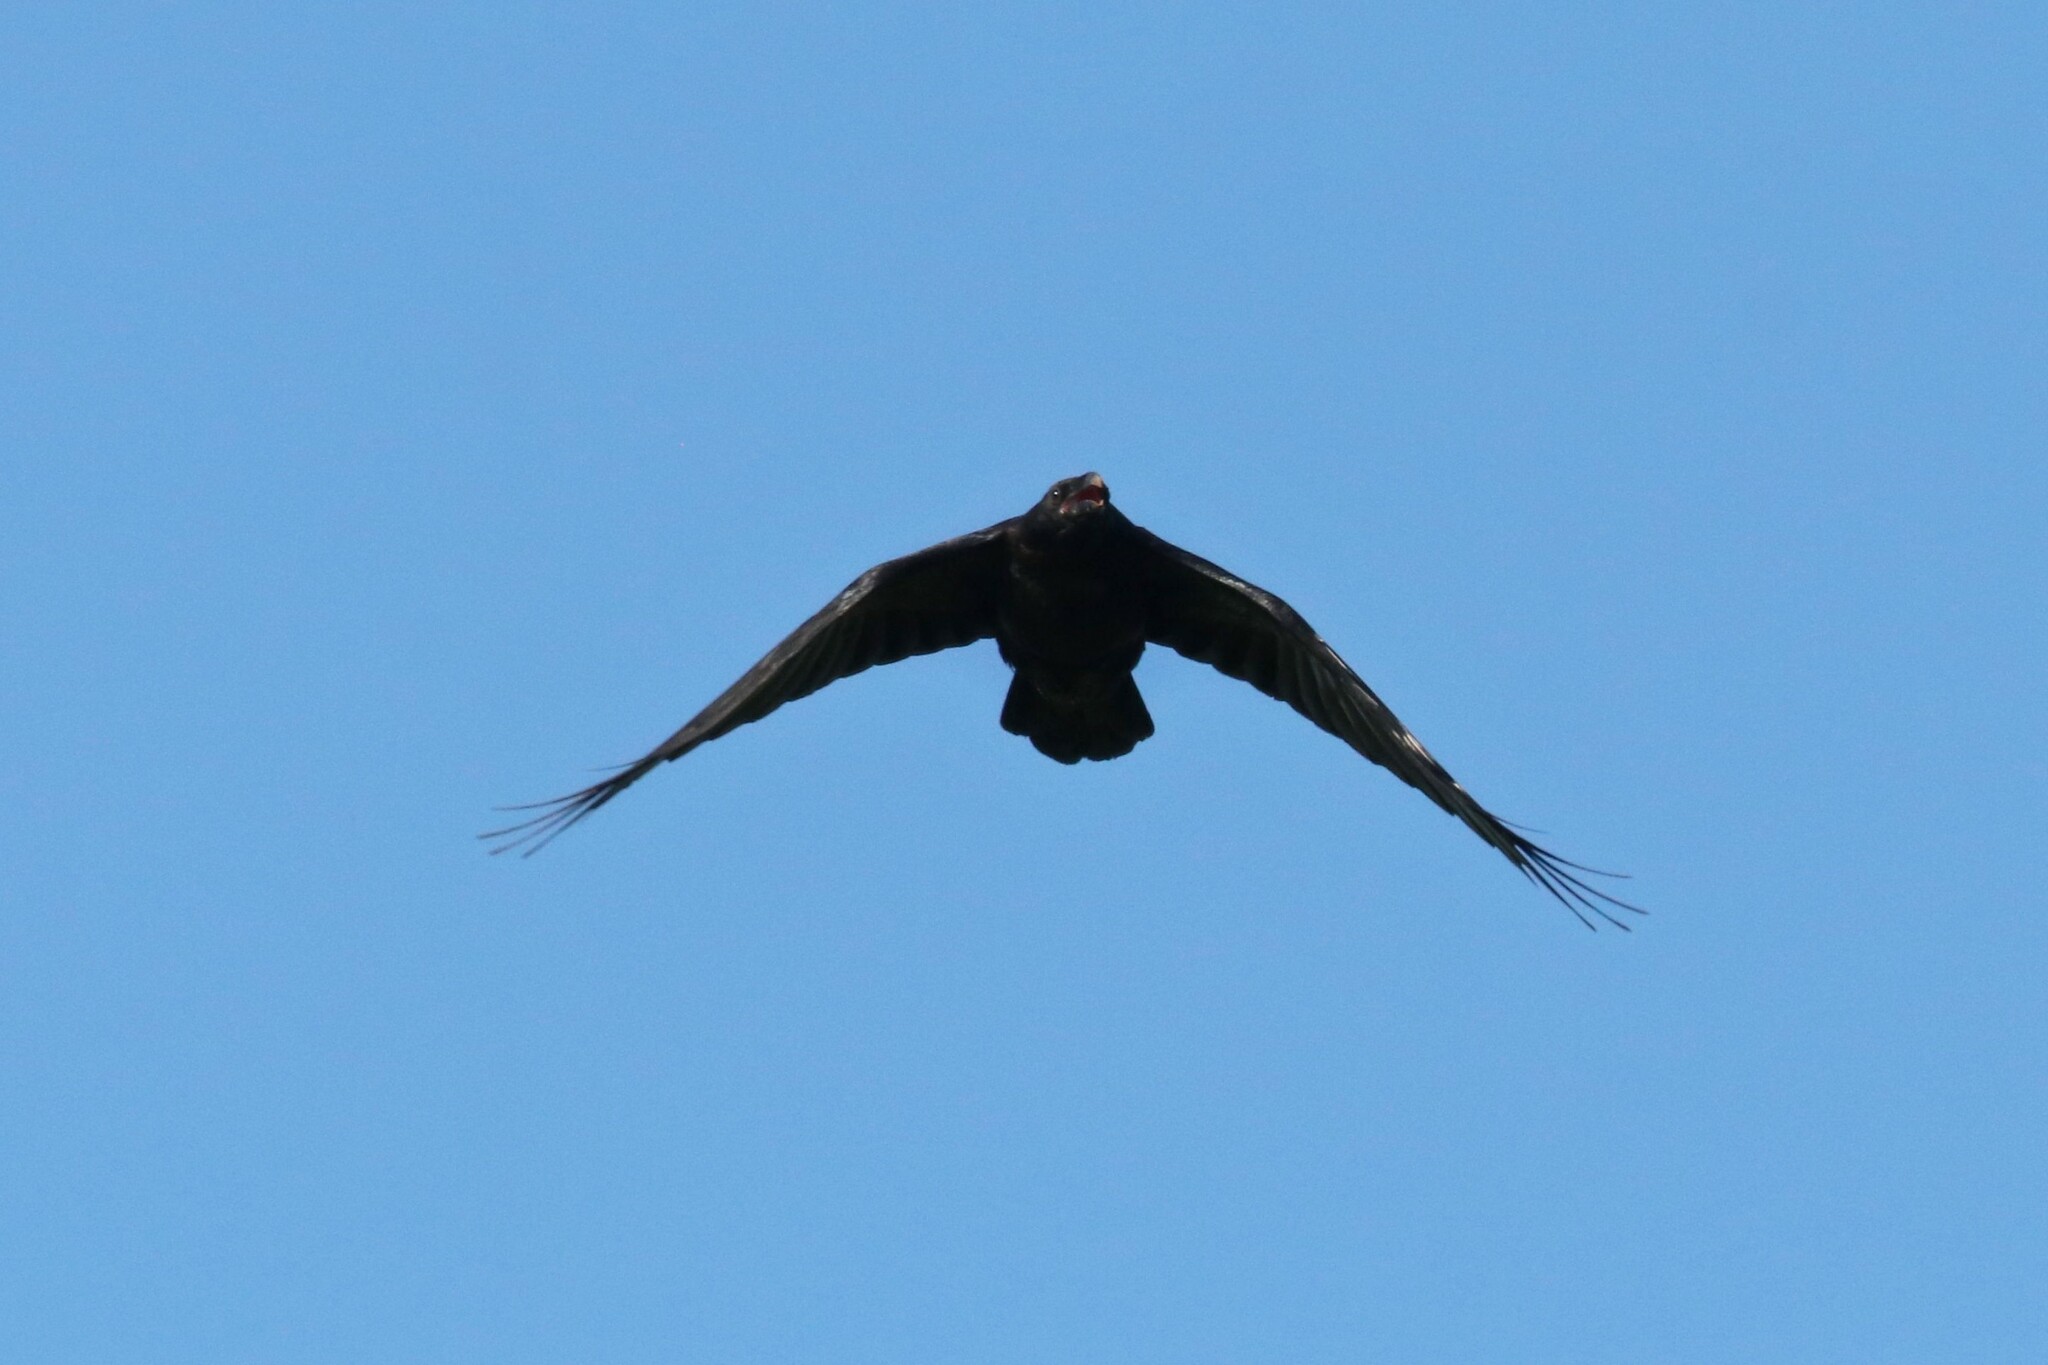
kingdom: Animalia
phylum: Chordata
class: Aves
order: Passeriformes
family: Corvidae
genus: Corvus
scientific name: Corvus corax
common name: Common raven
